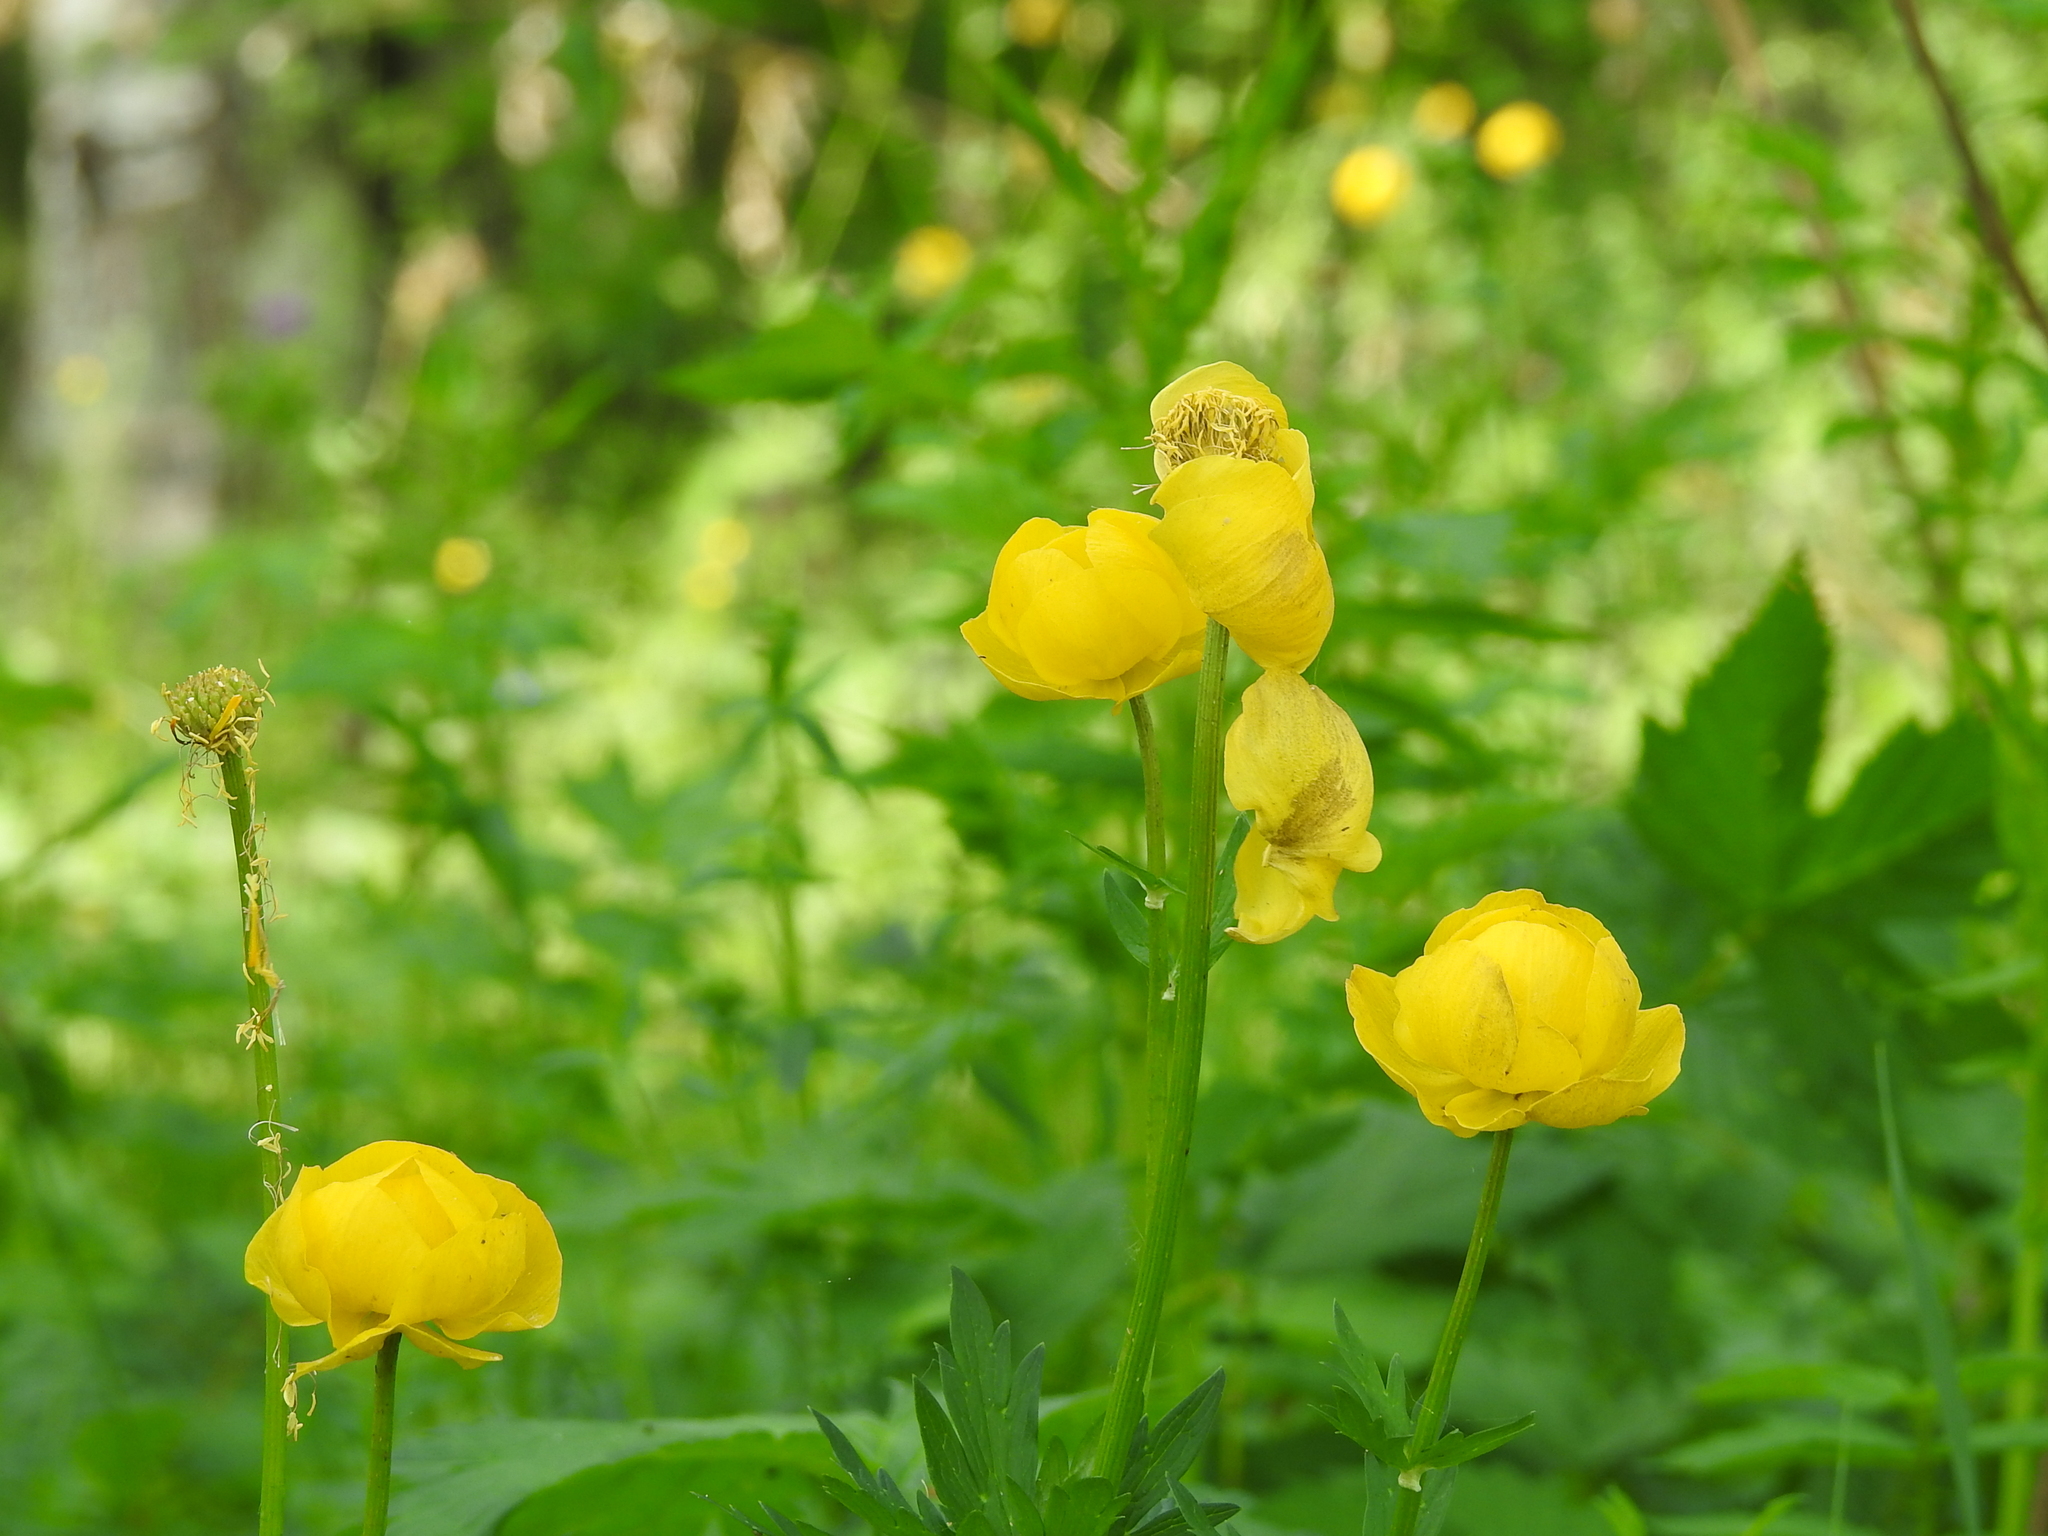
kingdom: Plantae
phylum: Tracheophyta
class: Magnoliopsida
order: Ranunculales
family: Ranunculaceae
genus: Trollius
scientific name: Trollius europaeus
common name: European globeflower
